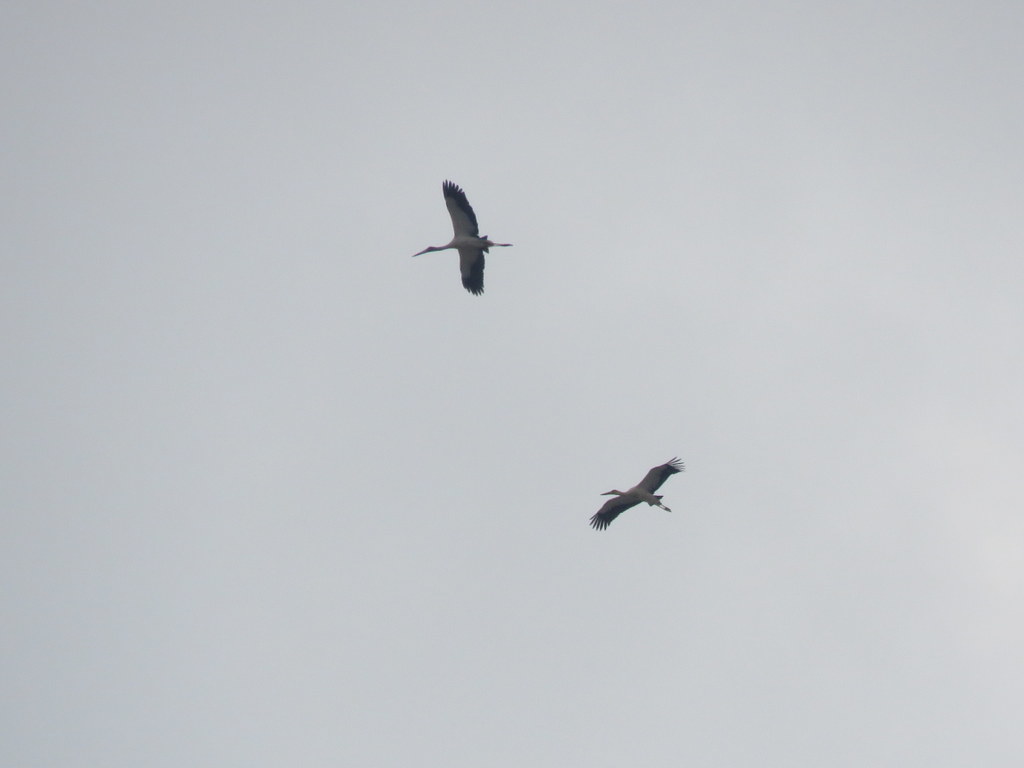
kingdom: Animalia
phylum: Chordata
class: Aves
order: Ciconiiformes
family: Ciconiidae
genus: Ciconia
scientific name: Ciconia maguari
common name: Maguari stork
